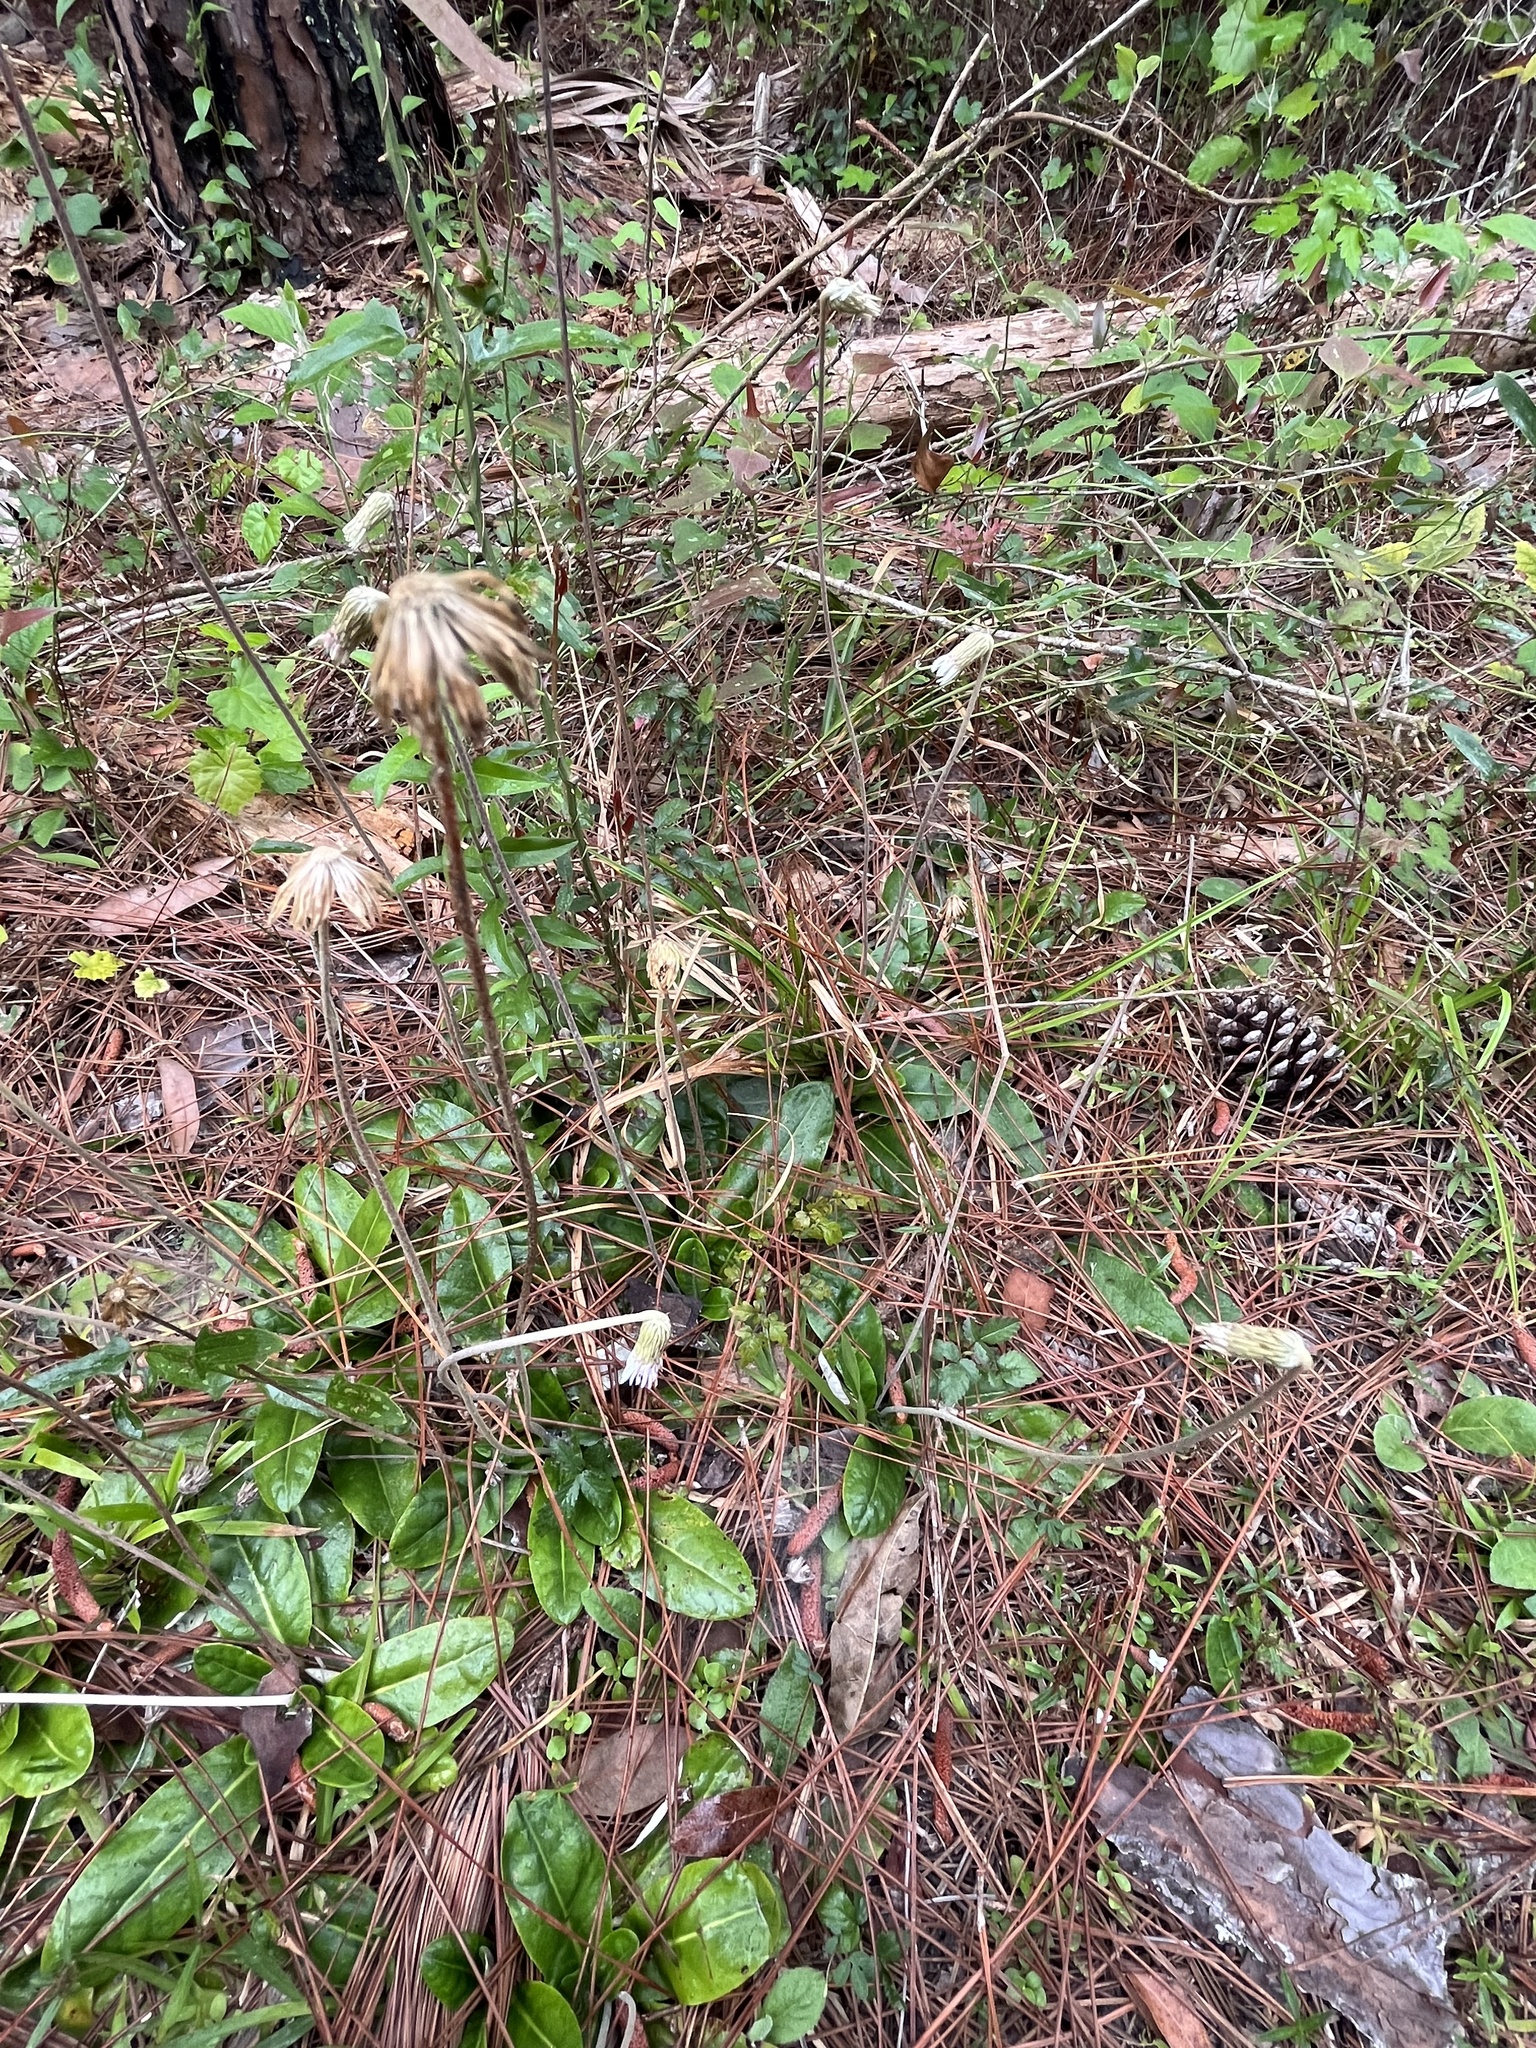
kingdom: Plantae
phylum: Tracheophyta
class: Magnoliopsida
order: Asterales
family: Asteraceae
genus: Chaptalia
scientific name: Chaptalia tomentosa
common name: Woolly sunbonnet
